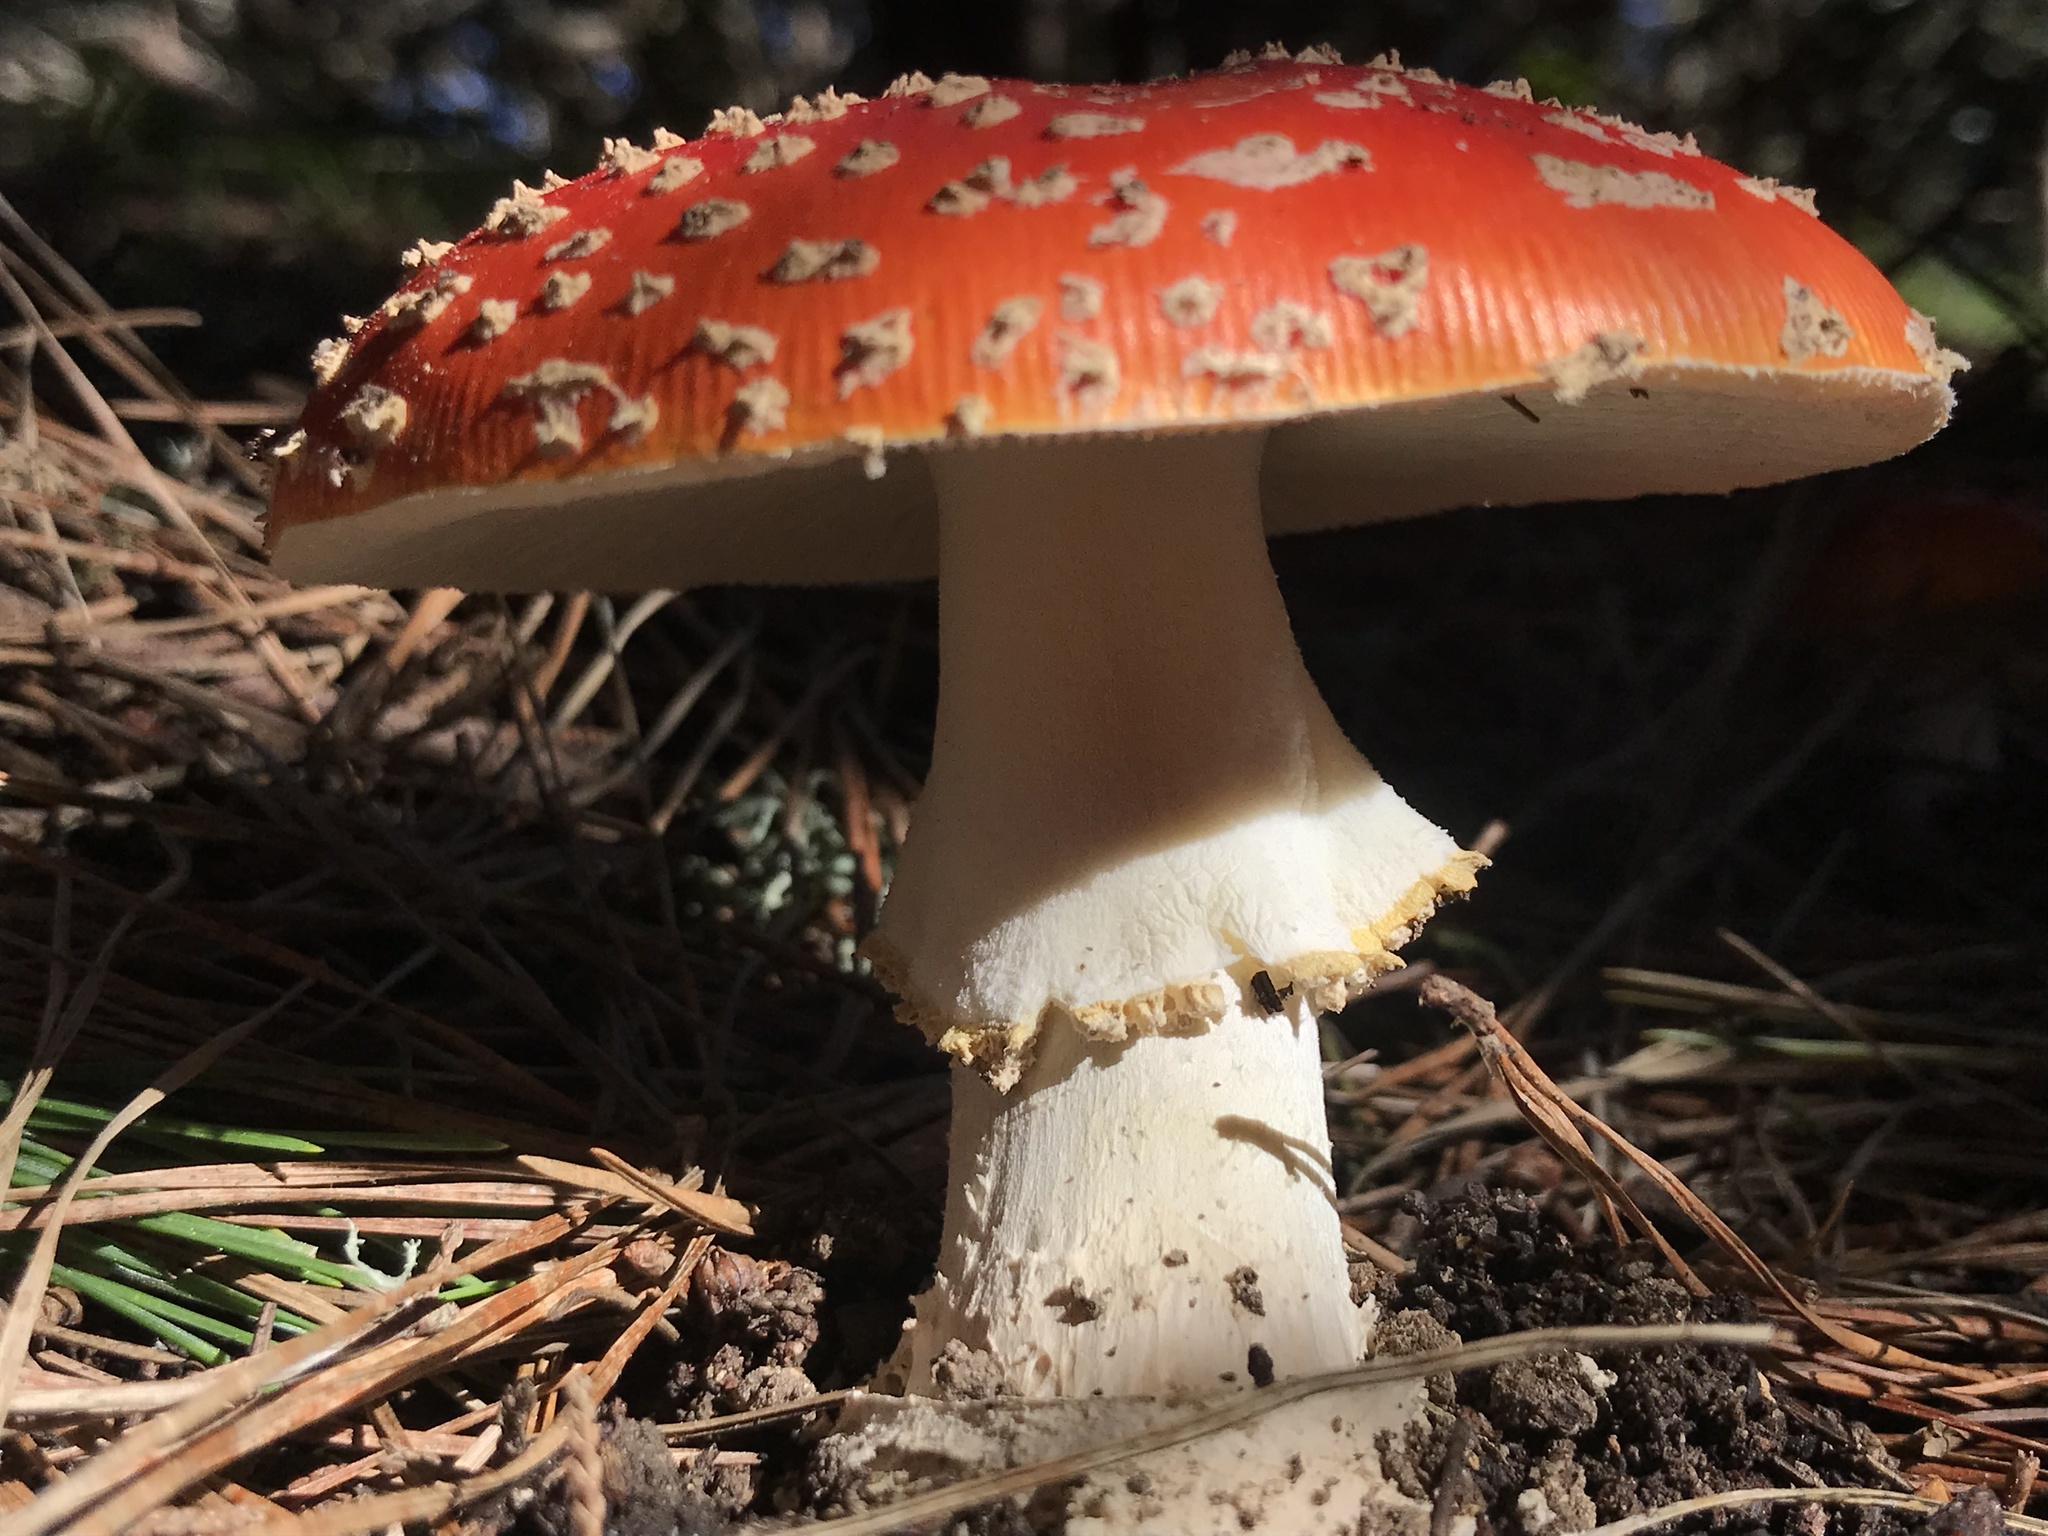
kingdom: Fungi
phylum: Basidiomycota
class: Agaricomycetes
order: Agaricales
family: Amanitaceae
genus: Amanita
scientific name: Amanita muscaria
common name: Fly agaric
